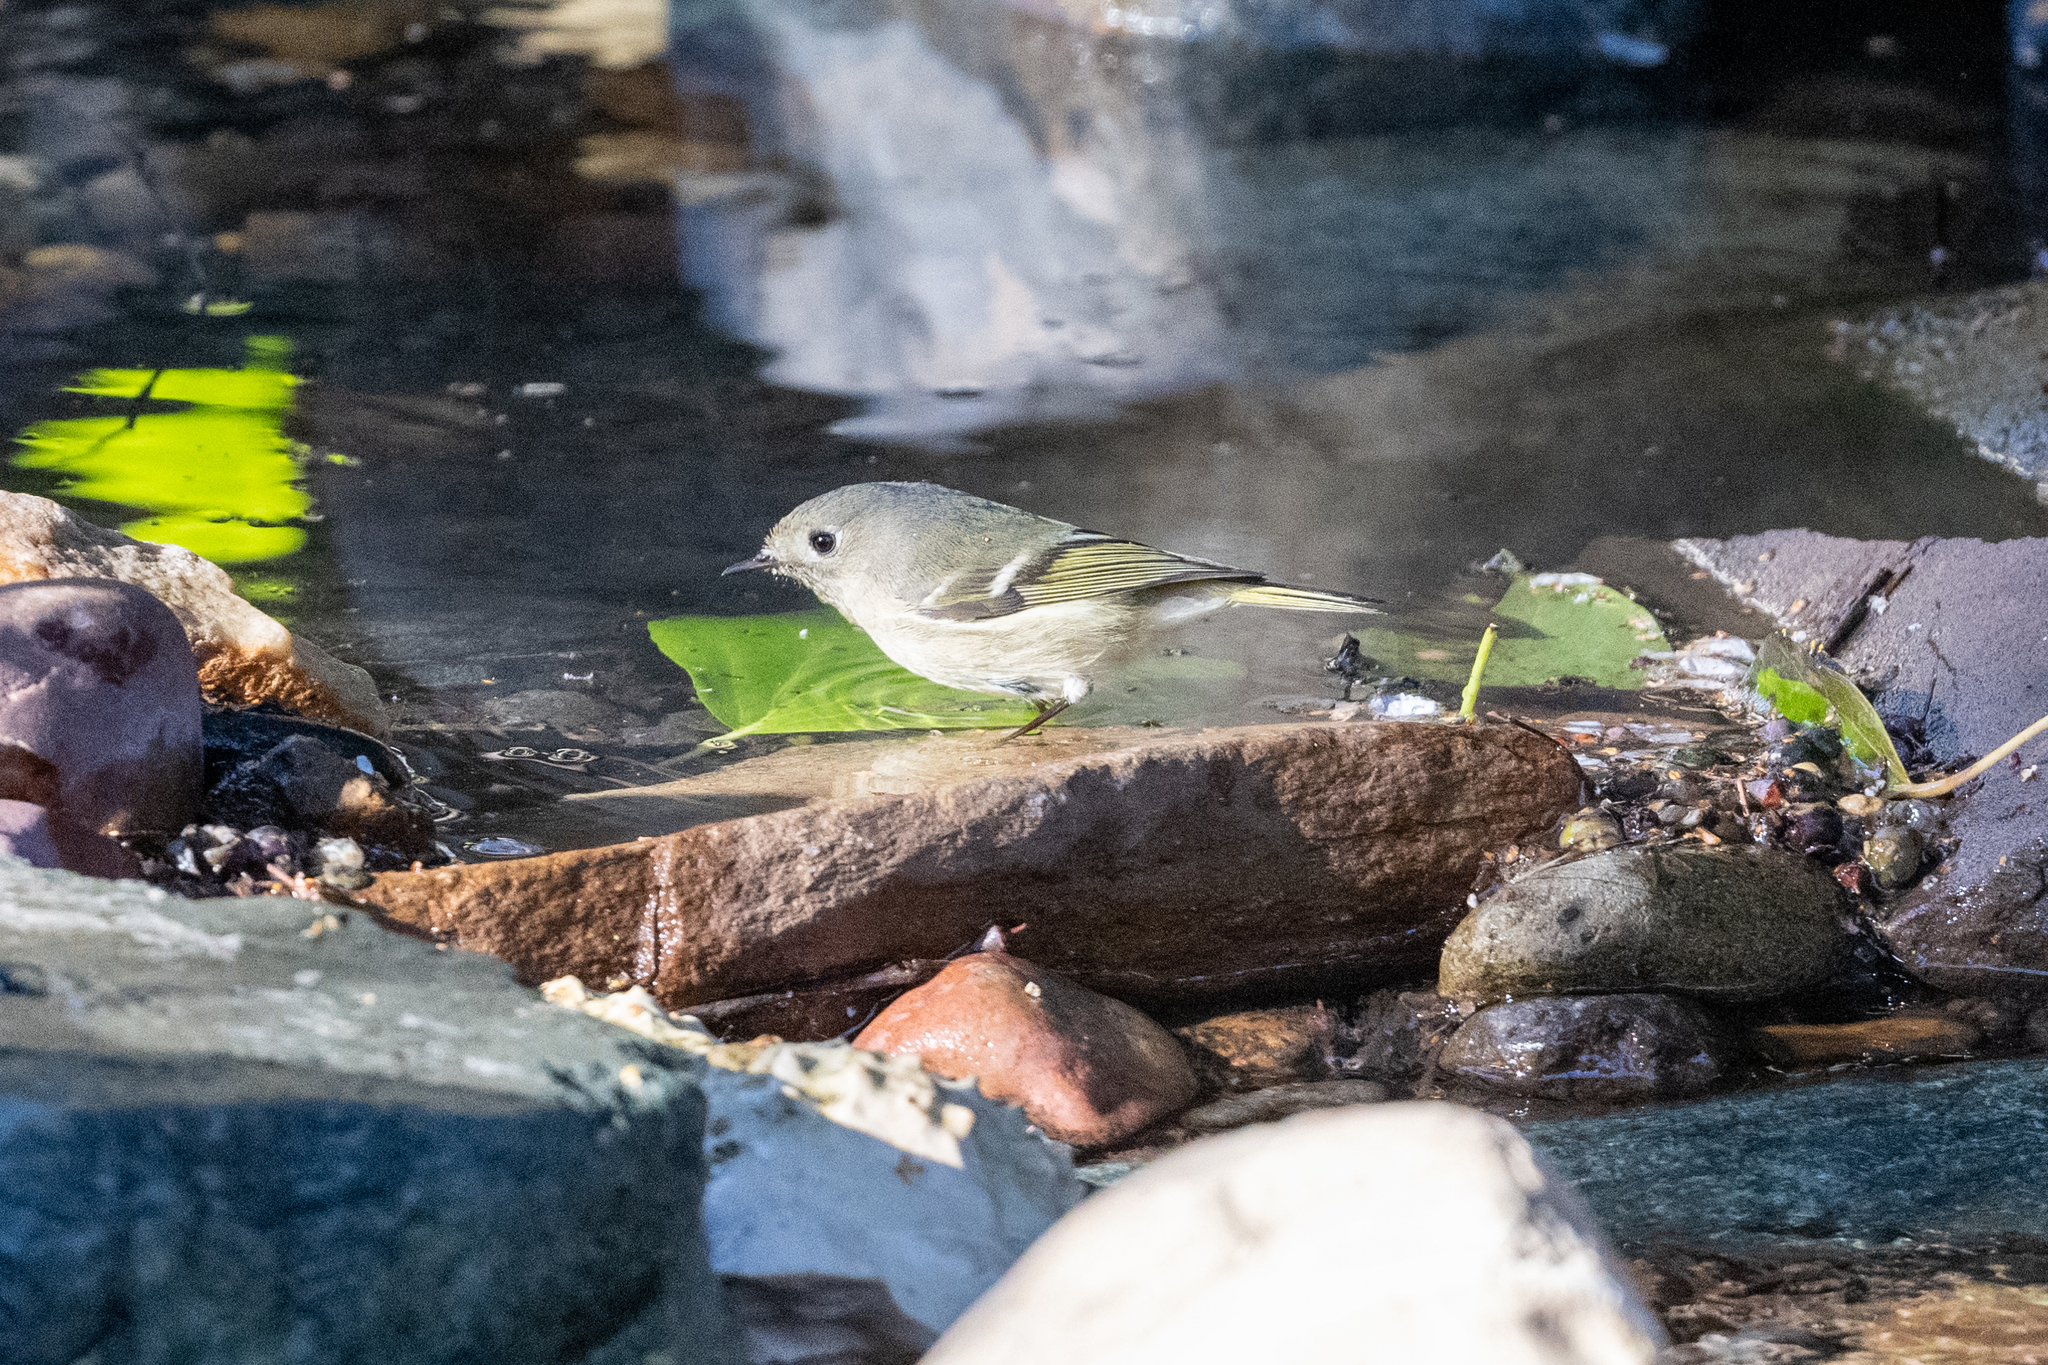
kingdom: Animalia
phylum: Chordata
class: Aves
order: Passeriformes
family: Regulidae
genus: Regulus
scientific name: Regulus calendula
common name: Ruby-crowned kinglet
